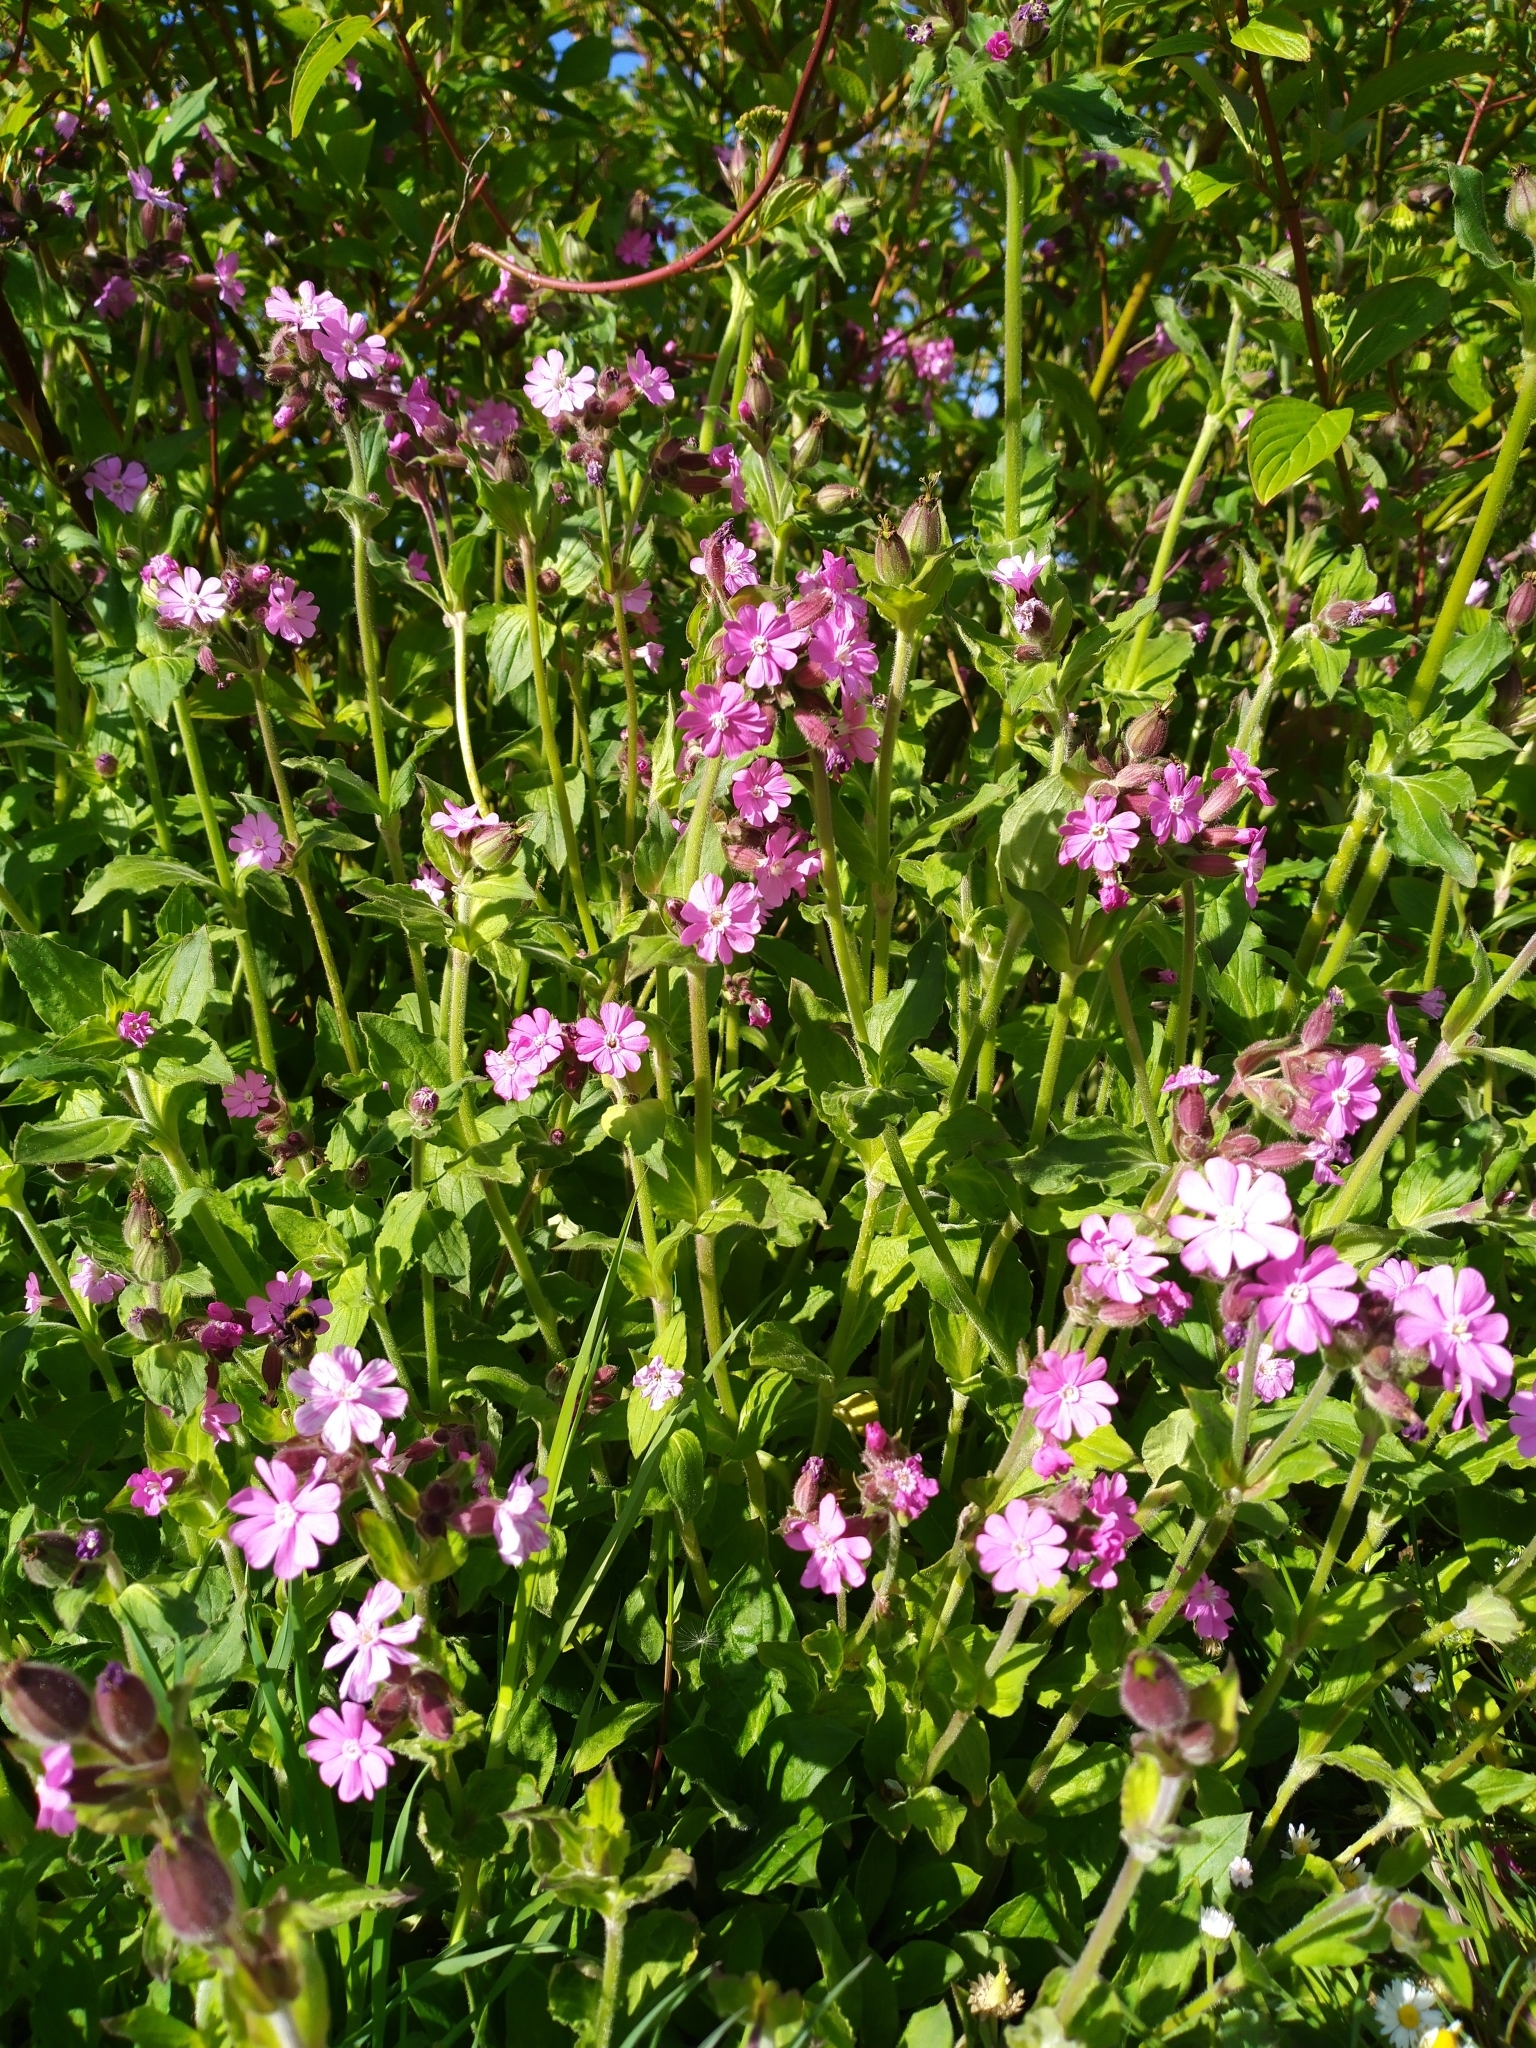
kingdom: Plantae
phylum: Tracheophyta
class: Magnoliopsida
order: Caryophyllales
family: Caryophyllaceae
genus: Silene
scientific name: Silene dioica
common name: Red campion
